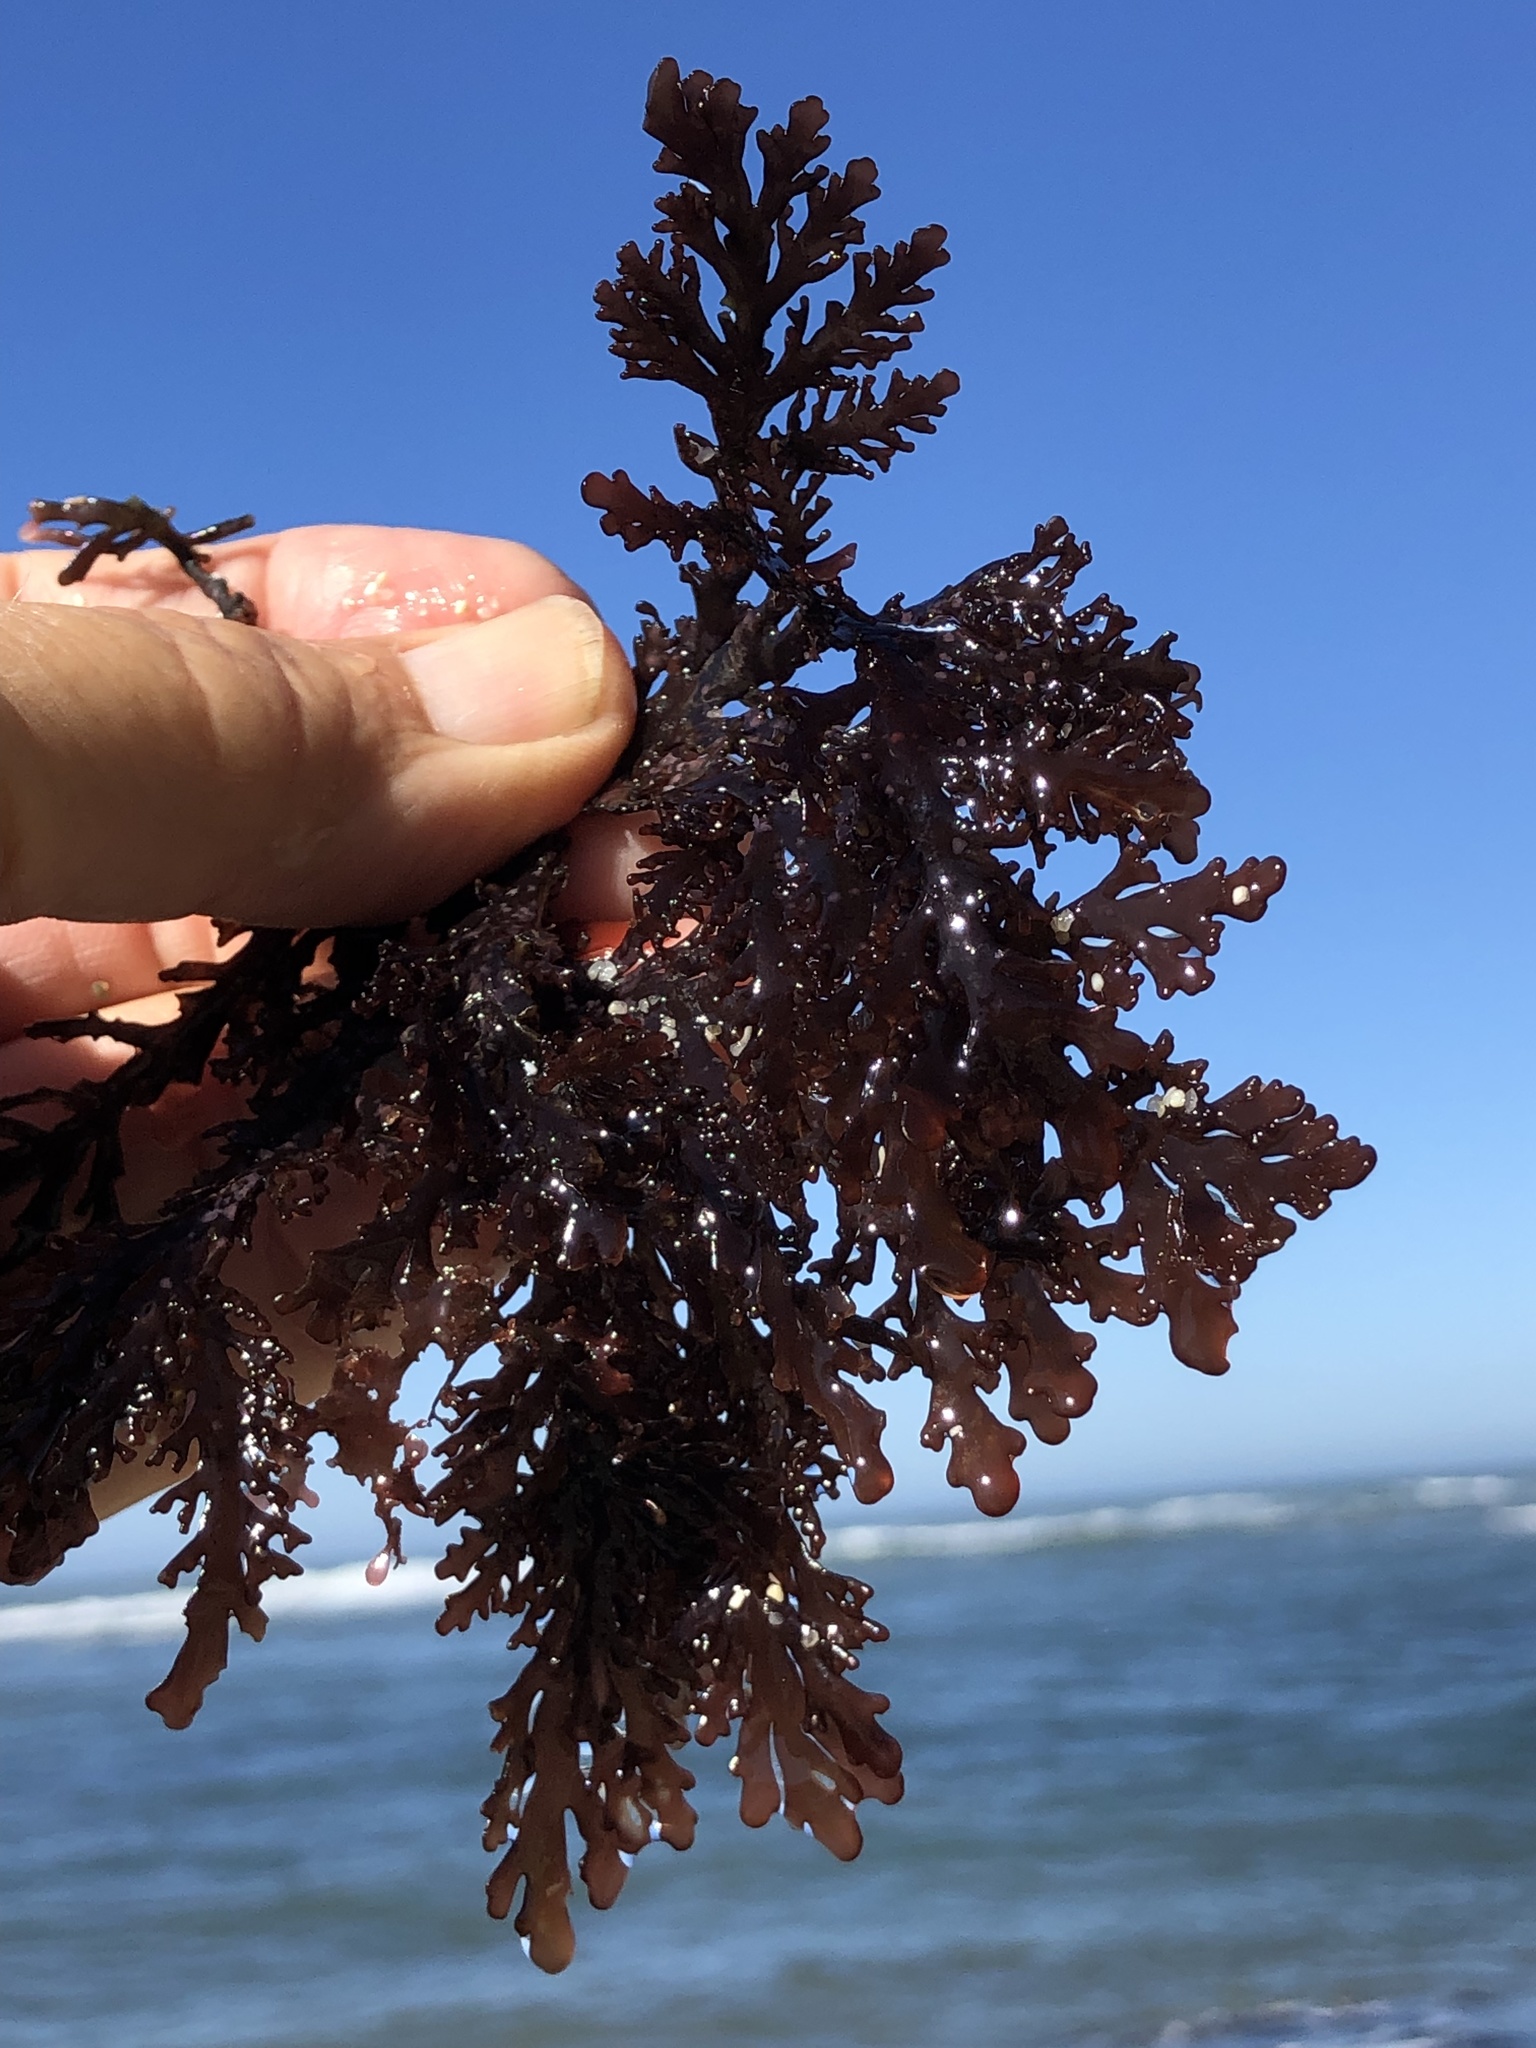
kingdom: Plantae
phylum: Rhodophyta
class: Florideophyceae
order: Ceramiales
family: Rhodomelaceae
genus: Osmundea
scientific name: Osmundea spectabilis
